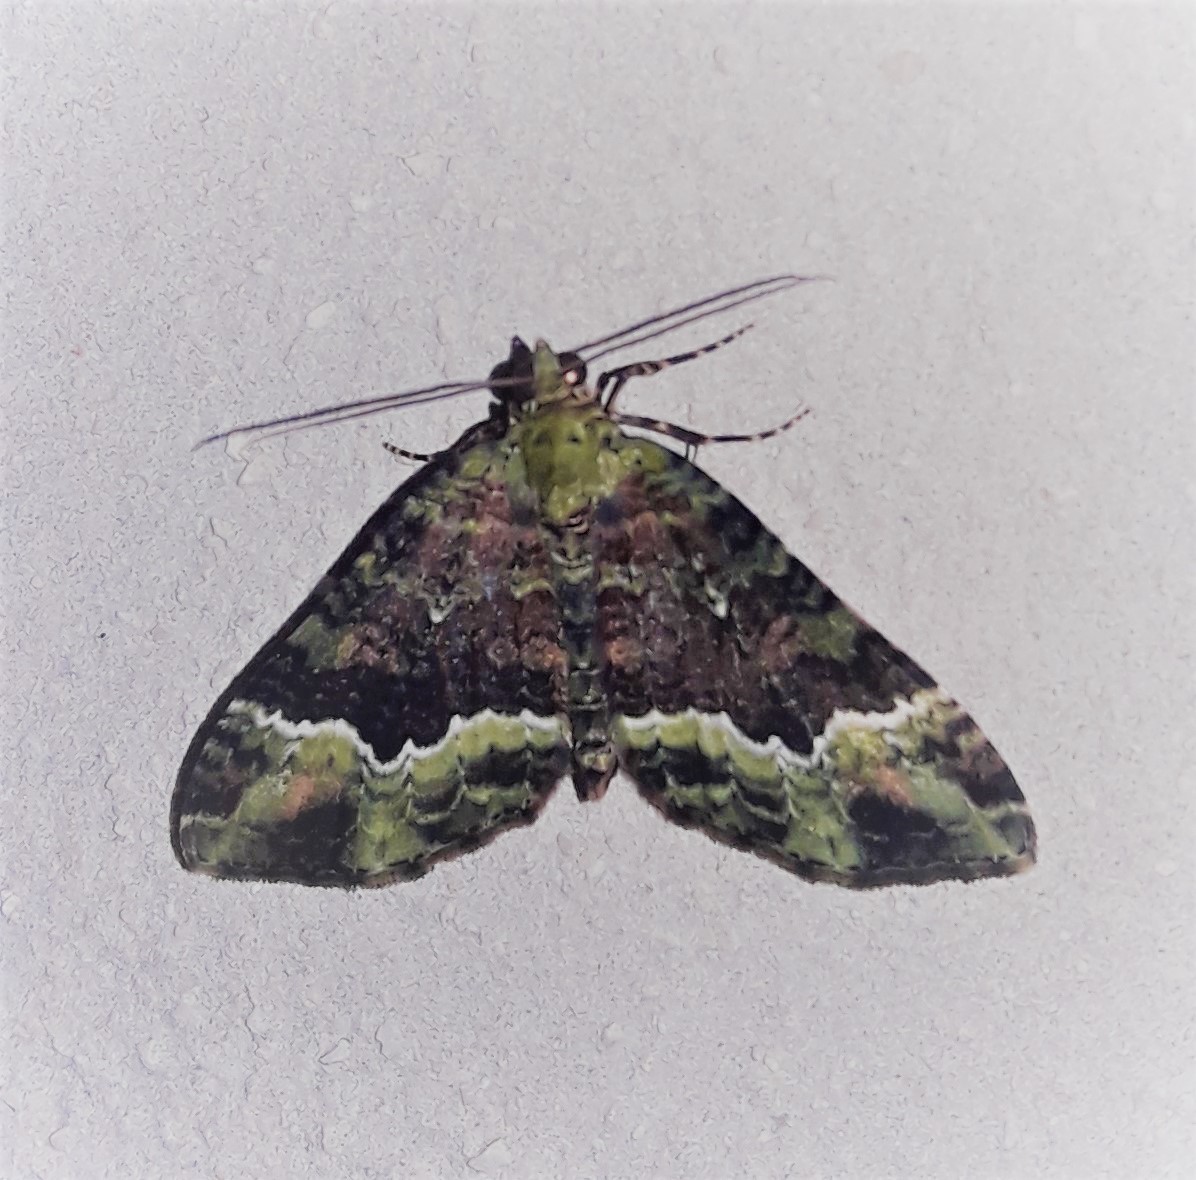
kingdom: Animalia
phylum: Arthropoda
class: Insecta
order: Lepidoptera
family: Geometridae
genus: Euphyia
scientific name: Euphyia fartaria
